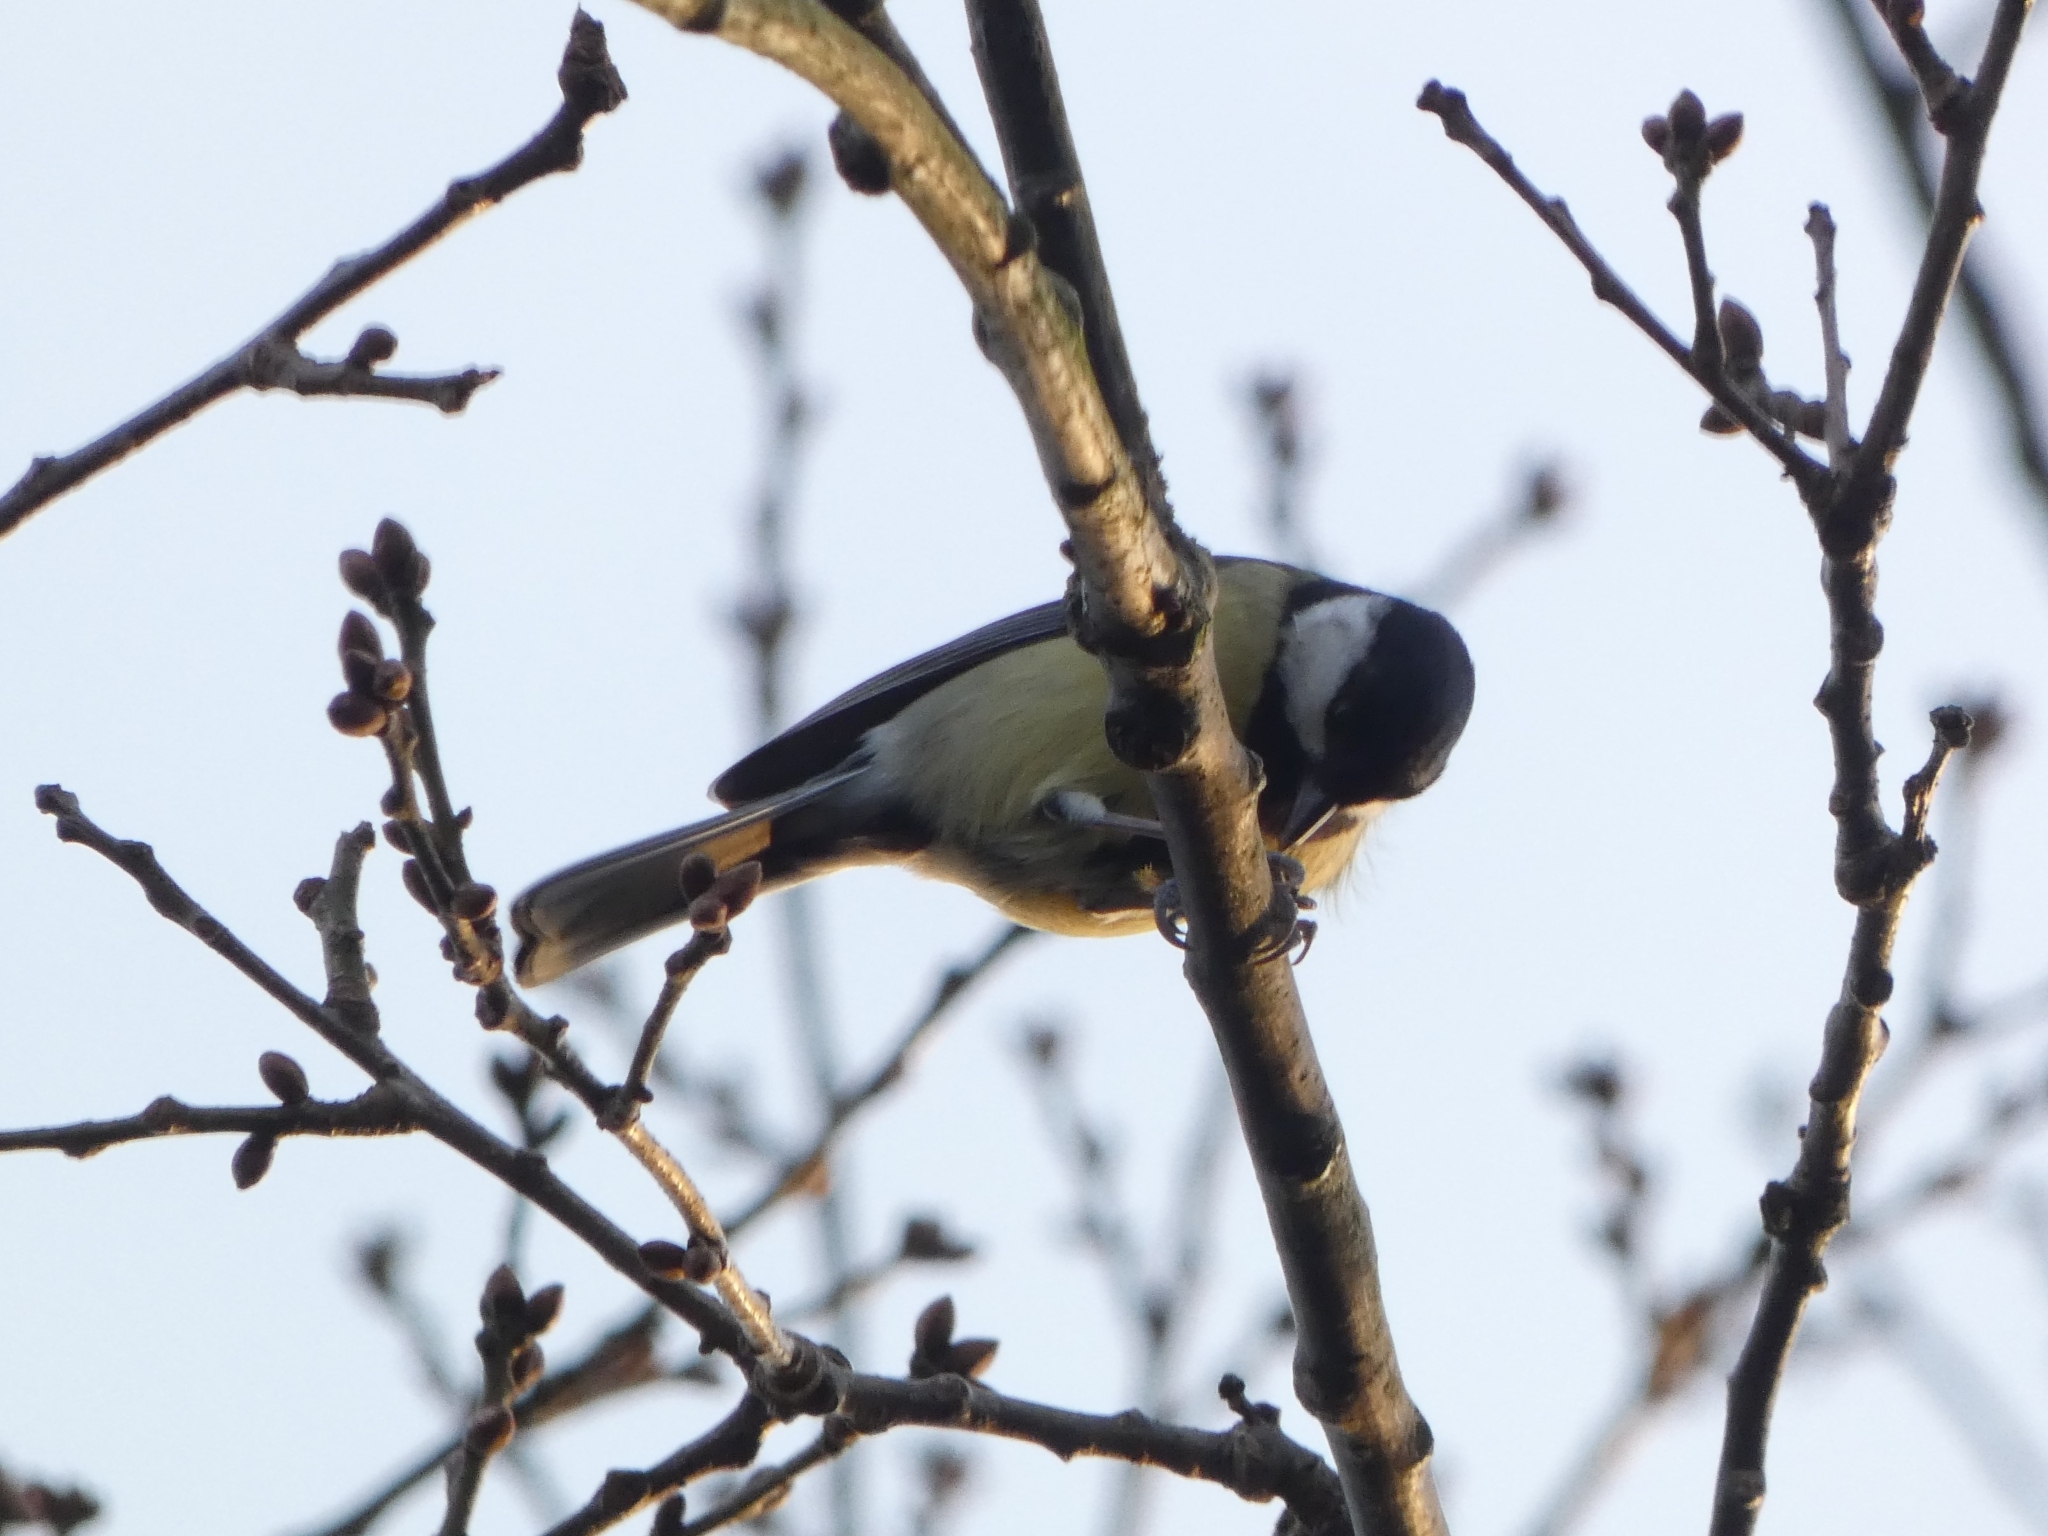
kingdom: Animalia
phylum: Chordata
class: Aves
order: Passeriformes
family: Paridae
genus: Parus
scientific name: Parus major
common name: Great tit
